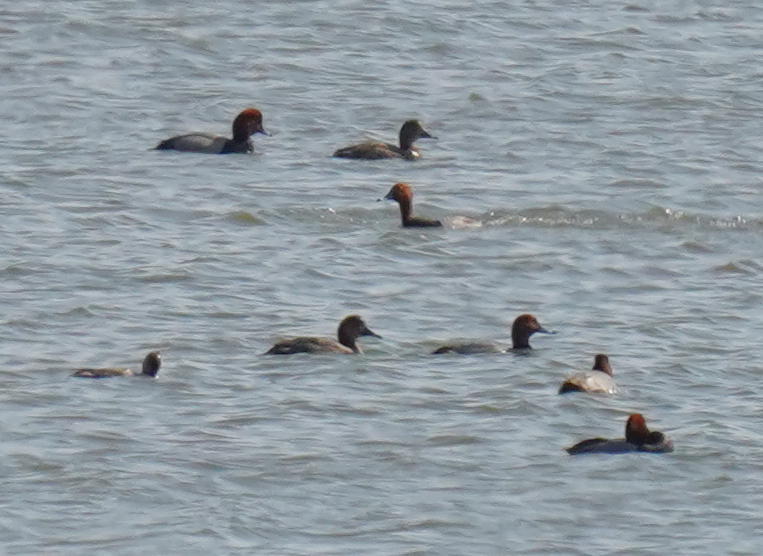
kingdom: Animalia
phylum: Chordata
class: Aves
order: Anseriformes
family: Anatidae
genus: Aythya
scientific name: Aythya americana
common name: Redhead
